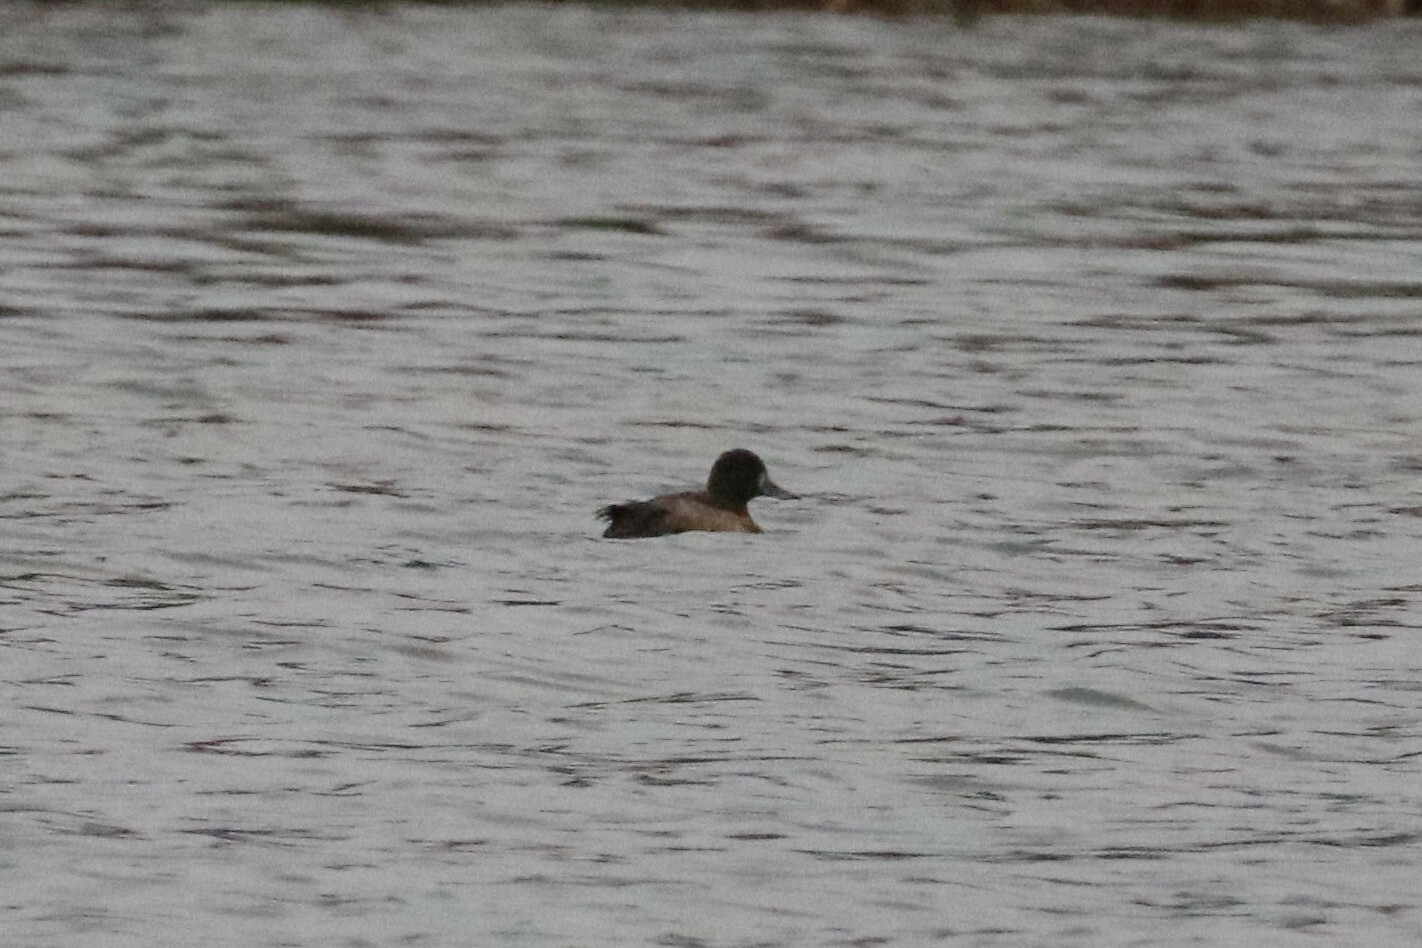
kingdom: Animalia
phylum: Chordata
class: Aves
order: Anseriformes
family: Anatidae
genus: Aythya
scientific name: Aythya fuligula
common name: Tufted duck
